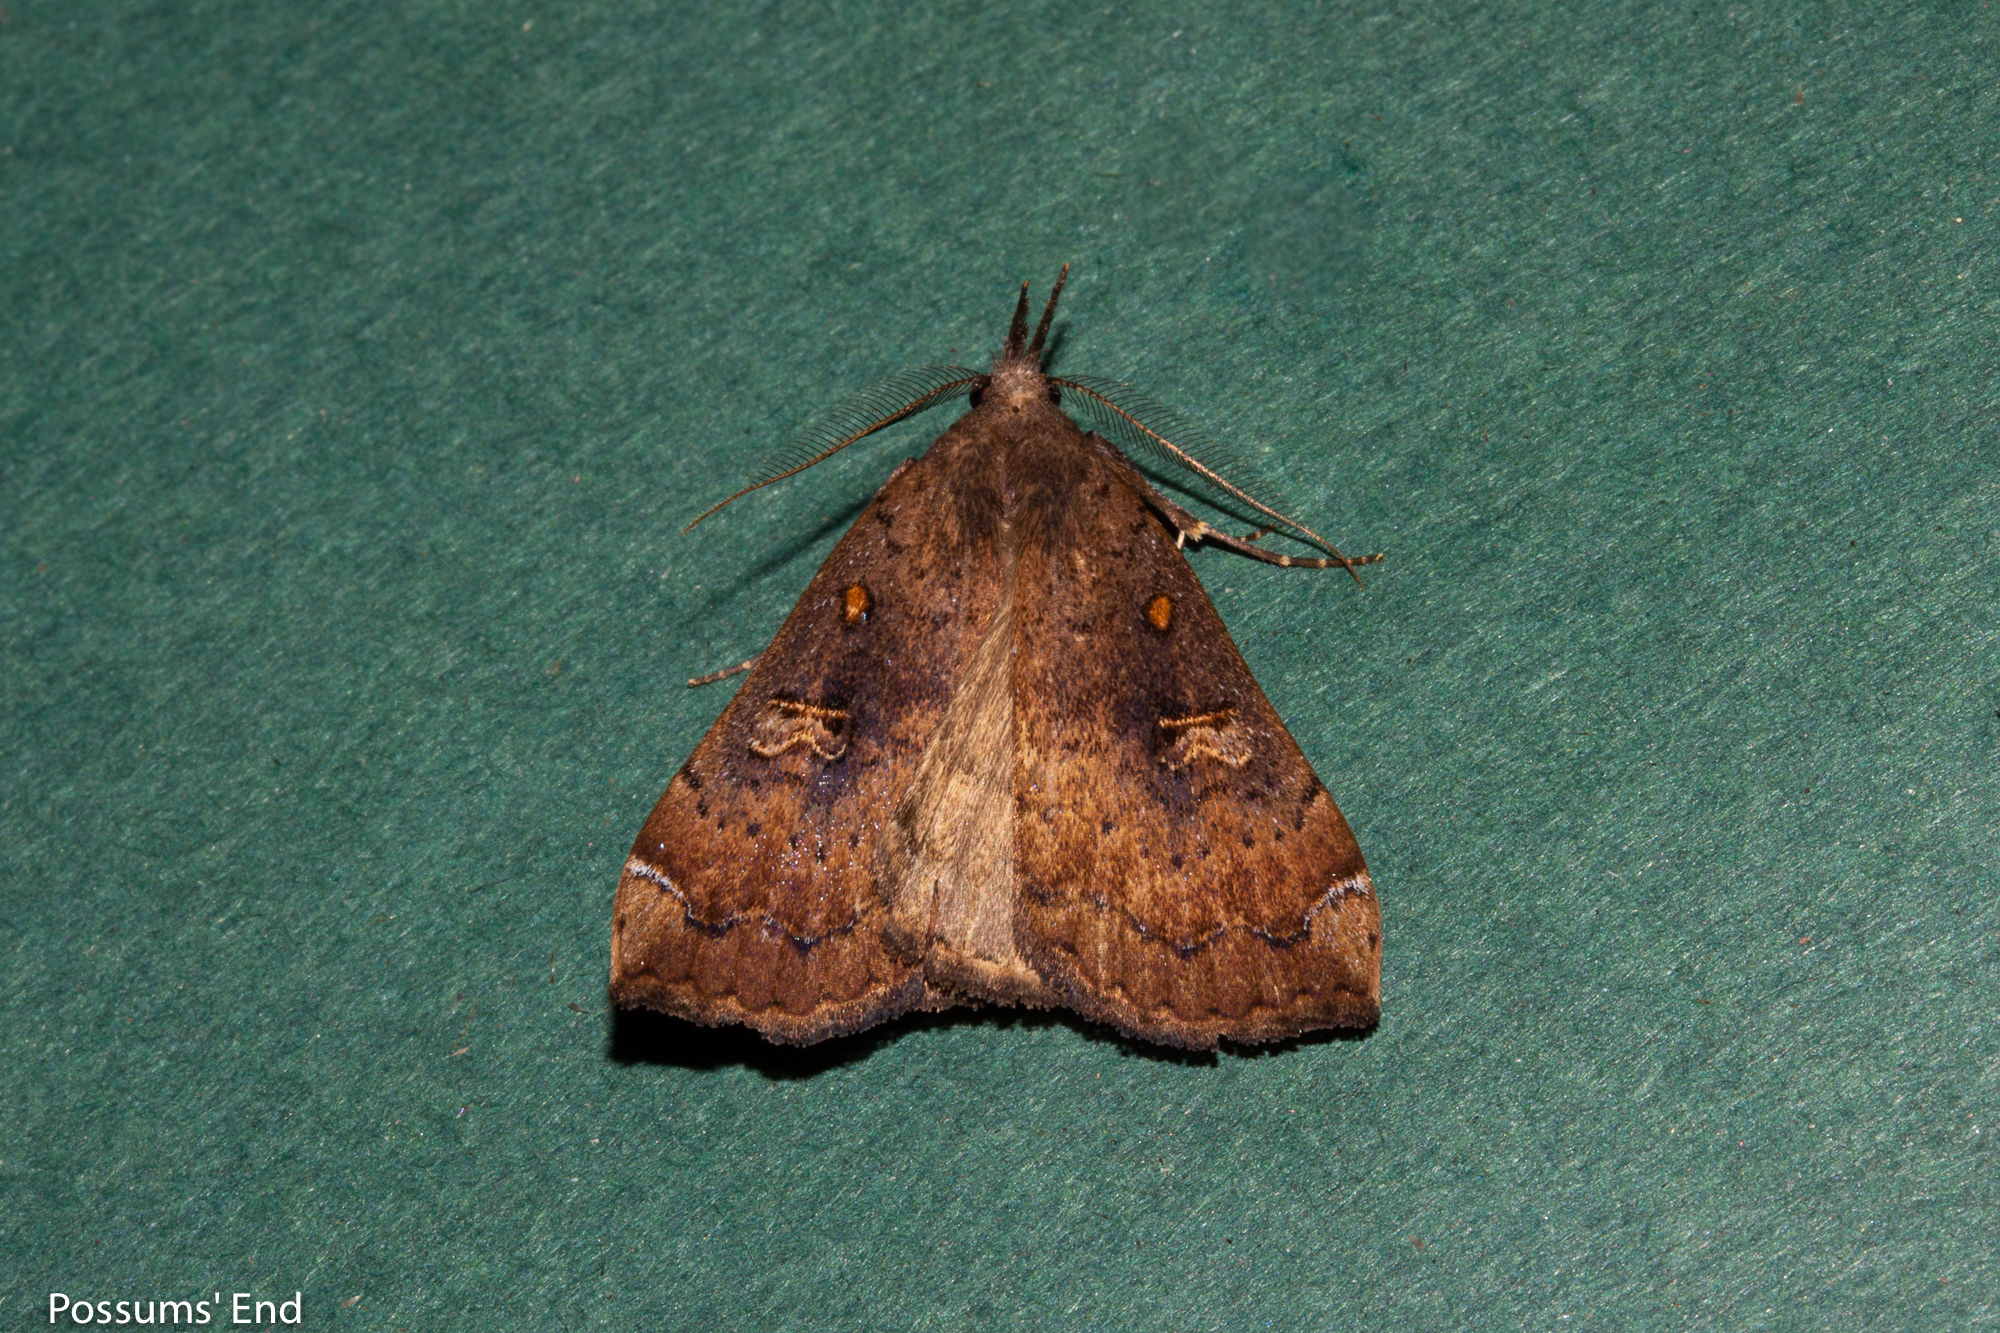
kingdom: Animalia
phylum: Arthropoda
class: Insecta
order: Lepidoptera
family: Erebidae
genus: Rhapsa
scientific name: Rhapsa scotosialis
